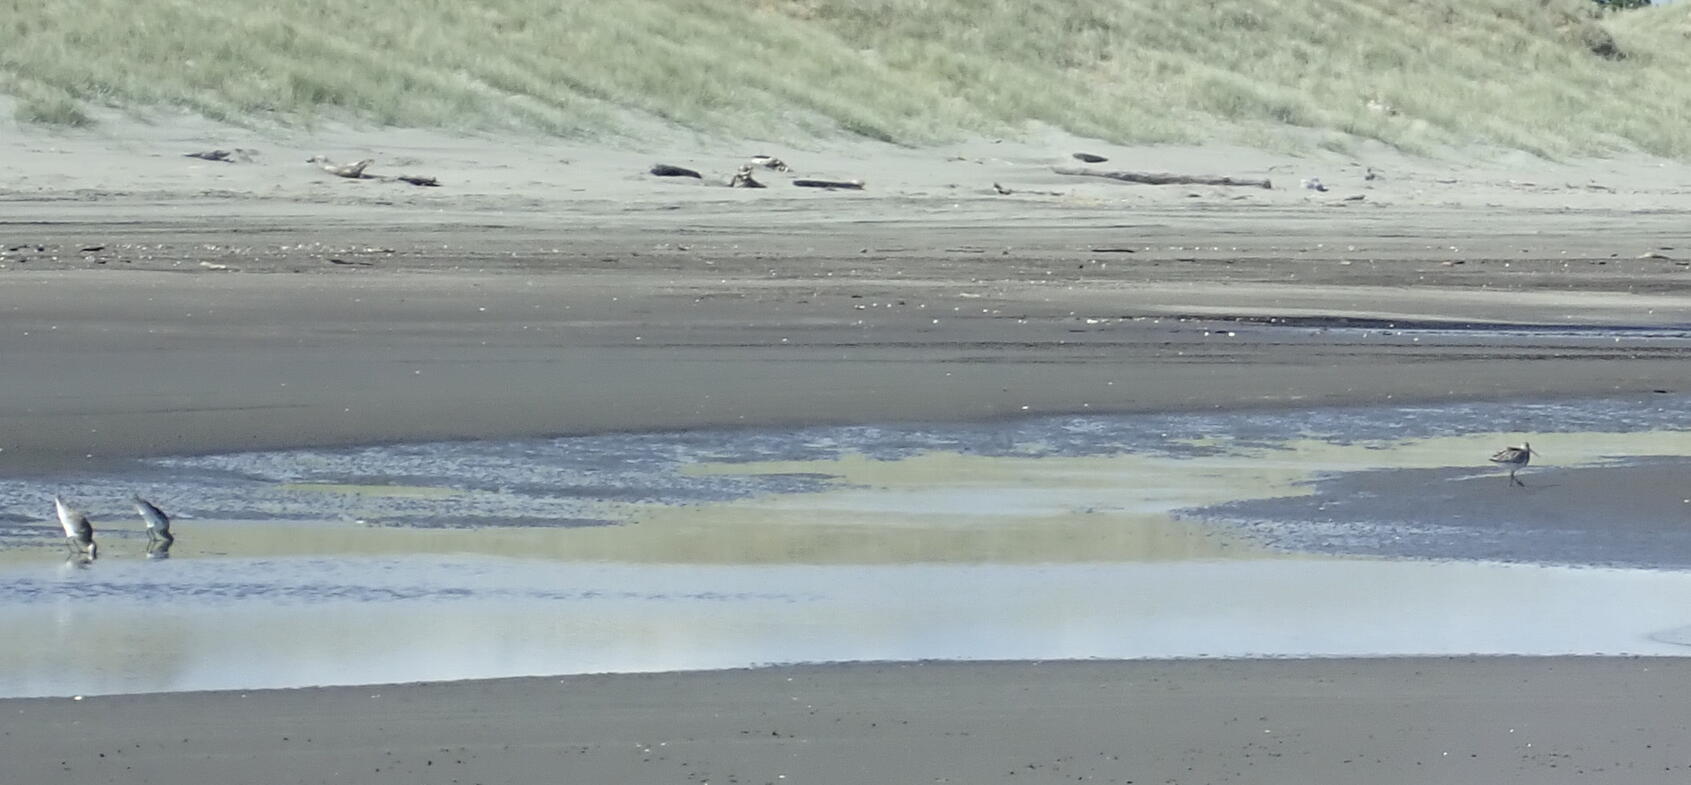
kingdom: Animalia
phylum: Chordata
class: Aves
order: Charadriiformes
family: Scolopacidae
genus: Limosa
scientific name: Limosa lapponica
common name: Bar-tailed godwit
